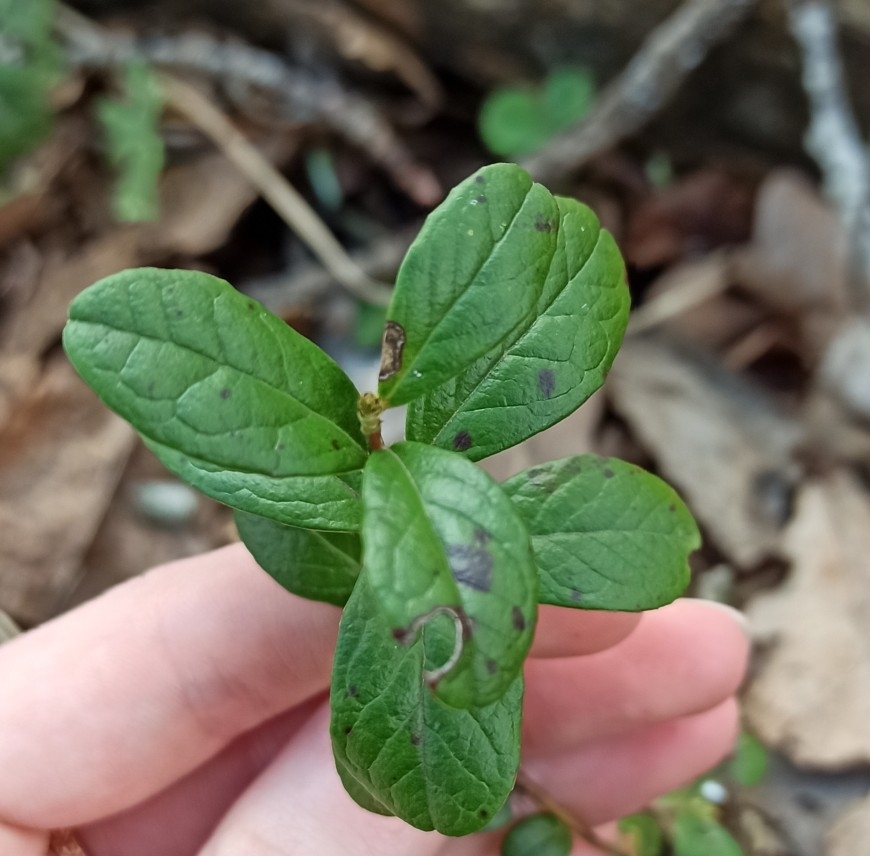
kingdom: Plantae
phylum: Tracheophyta
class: Magnoliopsida
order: Ericales
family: Ericaceae
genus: Vaccinium
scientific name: Vaccinium vitis-idaea
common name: Cowberry
